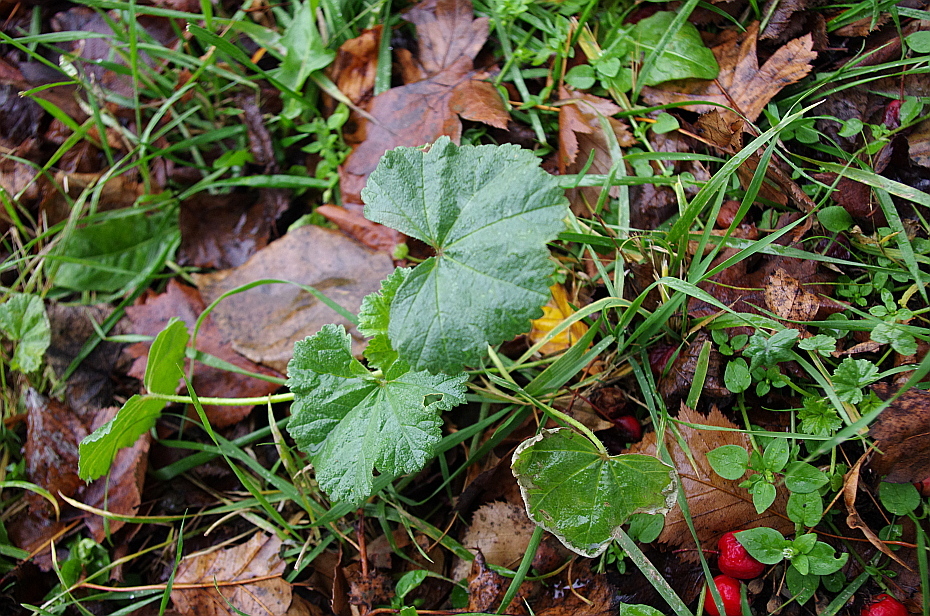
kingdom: Plantae
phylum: Tracheophyta
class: Magnoliopsida
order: Malvales
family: Malvaceae
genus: Malva
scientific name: Malva pusilla
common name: Small mallow
